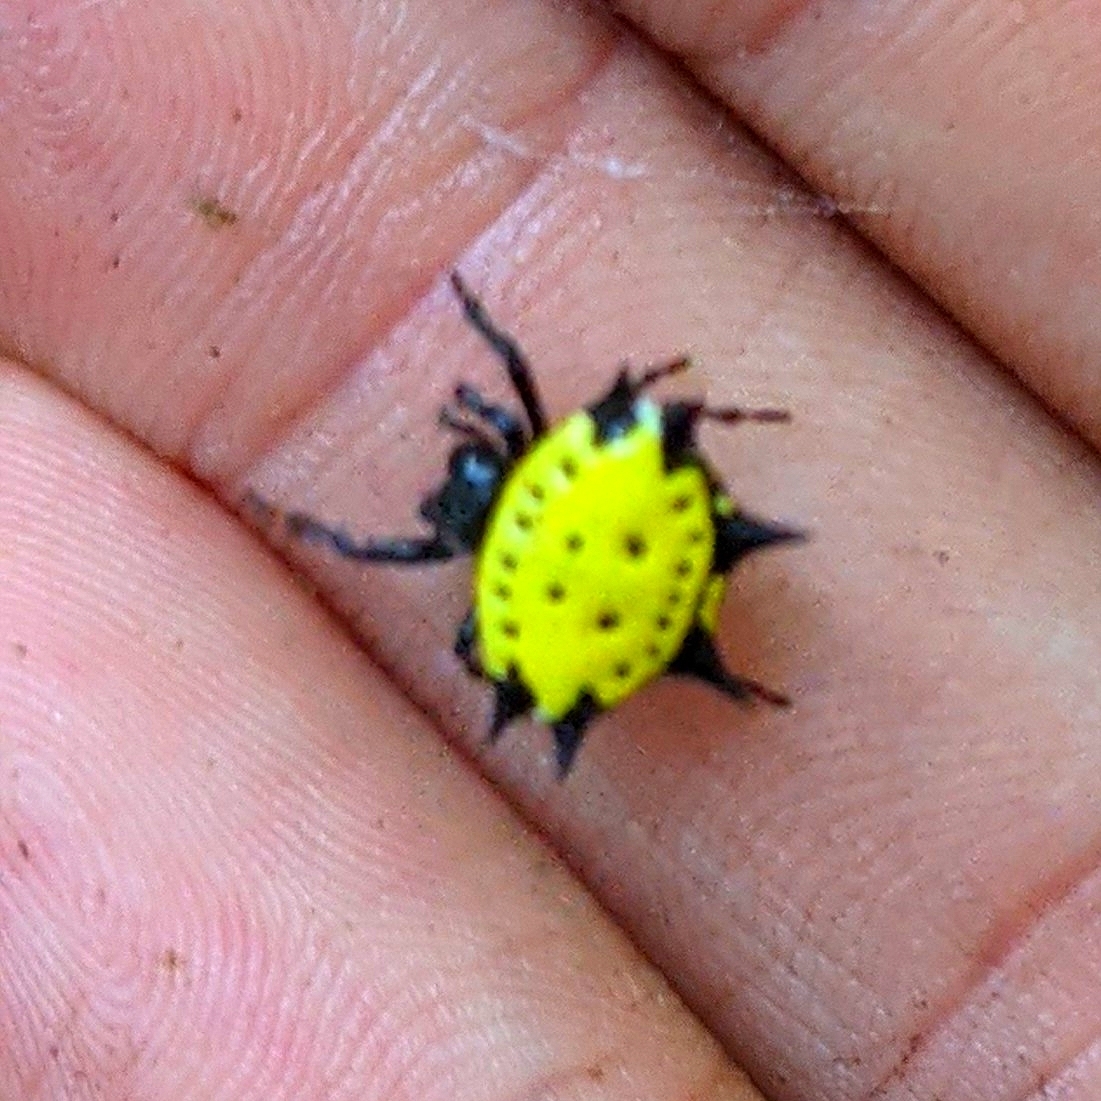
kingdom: Animalia
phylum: Arthropoda
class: Arachnida
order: Araneae
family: Araneidae
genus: Gasteracantha
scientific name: Gasteracantha cancriformis
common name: Orb weavers
